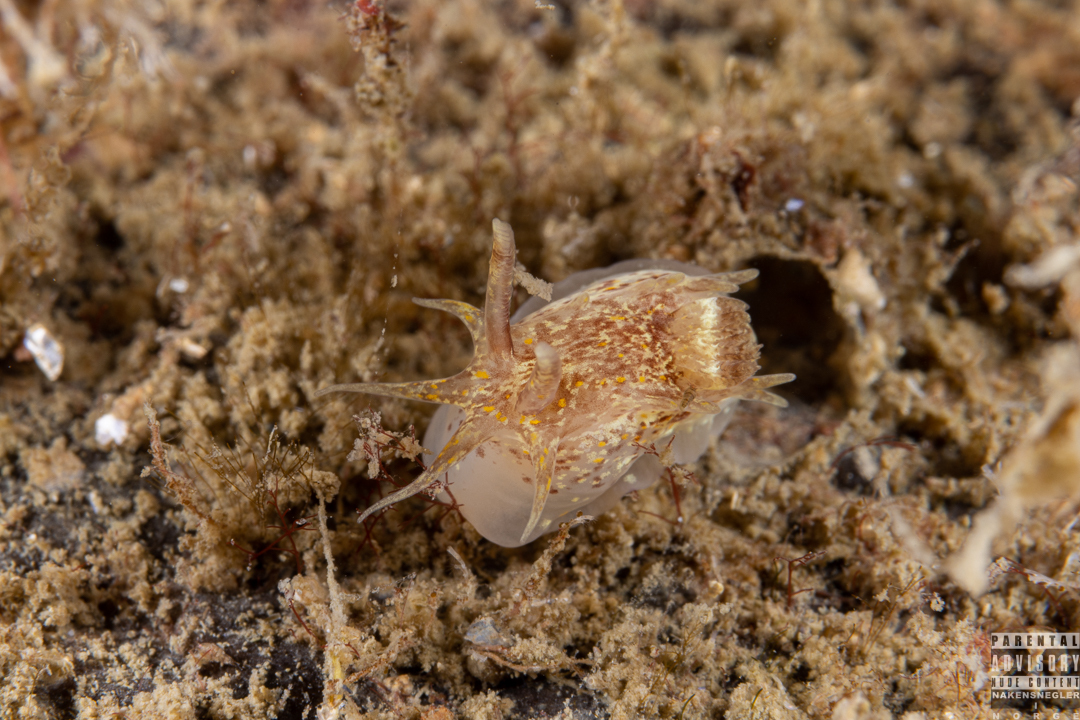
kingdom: Animalia
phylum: Mollusca
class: Gastropoda
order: Nudibranchia
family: Goniodorididae
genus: Okenia
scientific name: Okenia aspersa
